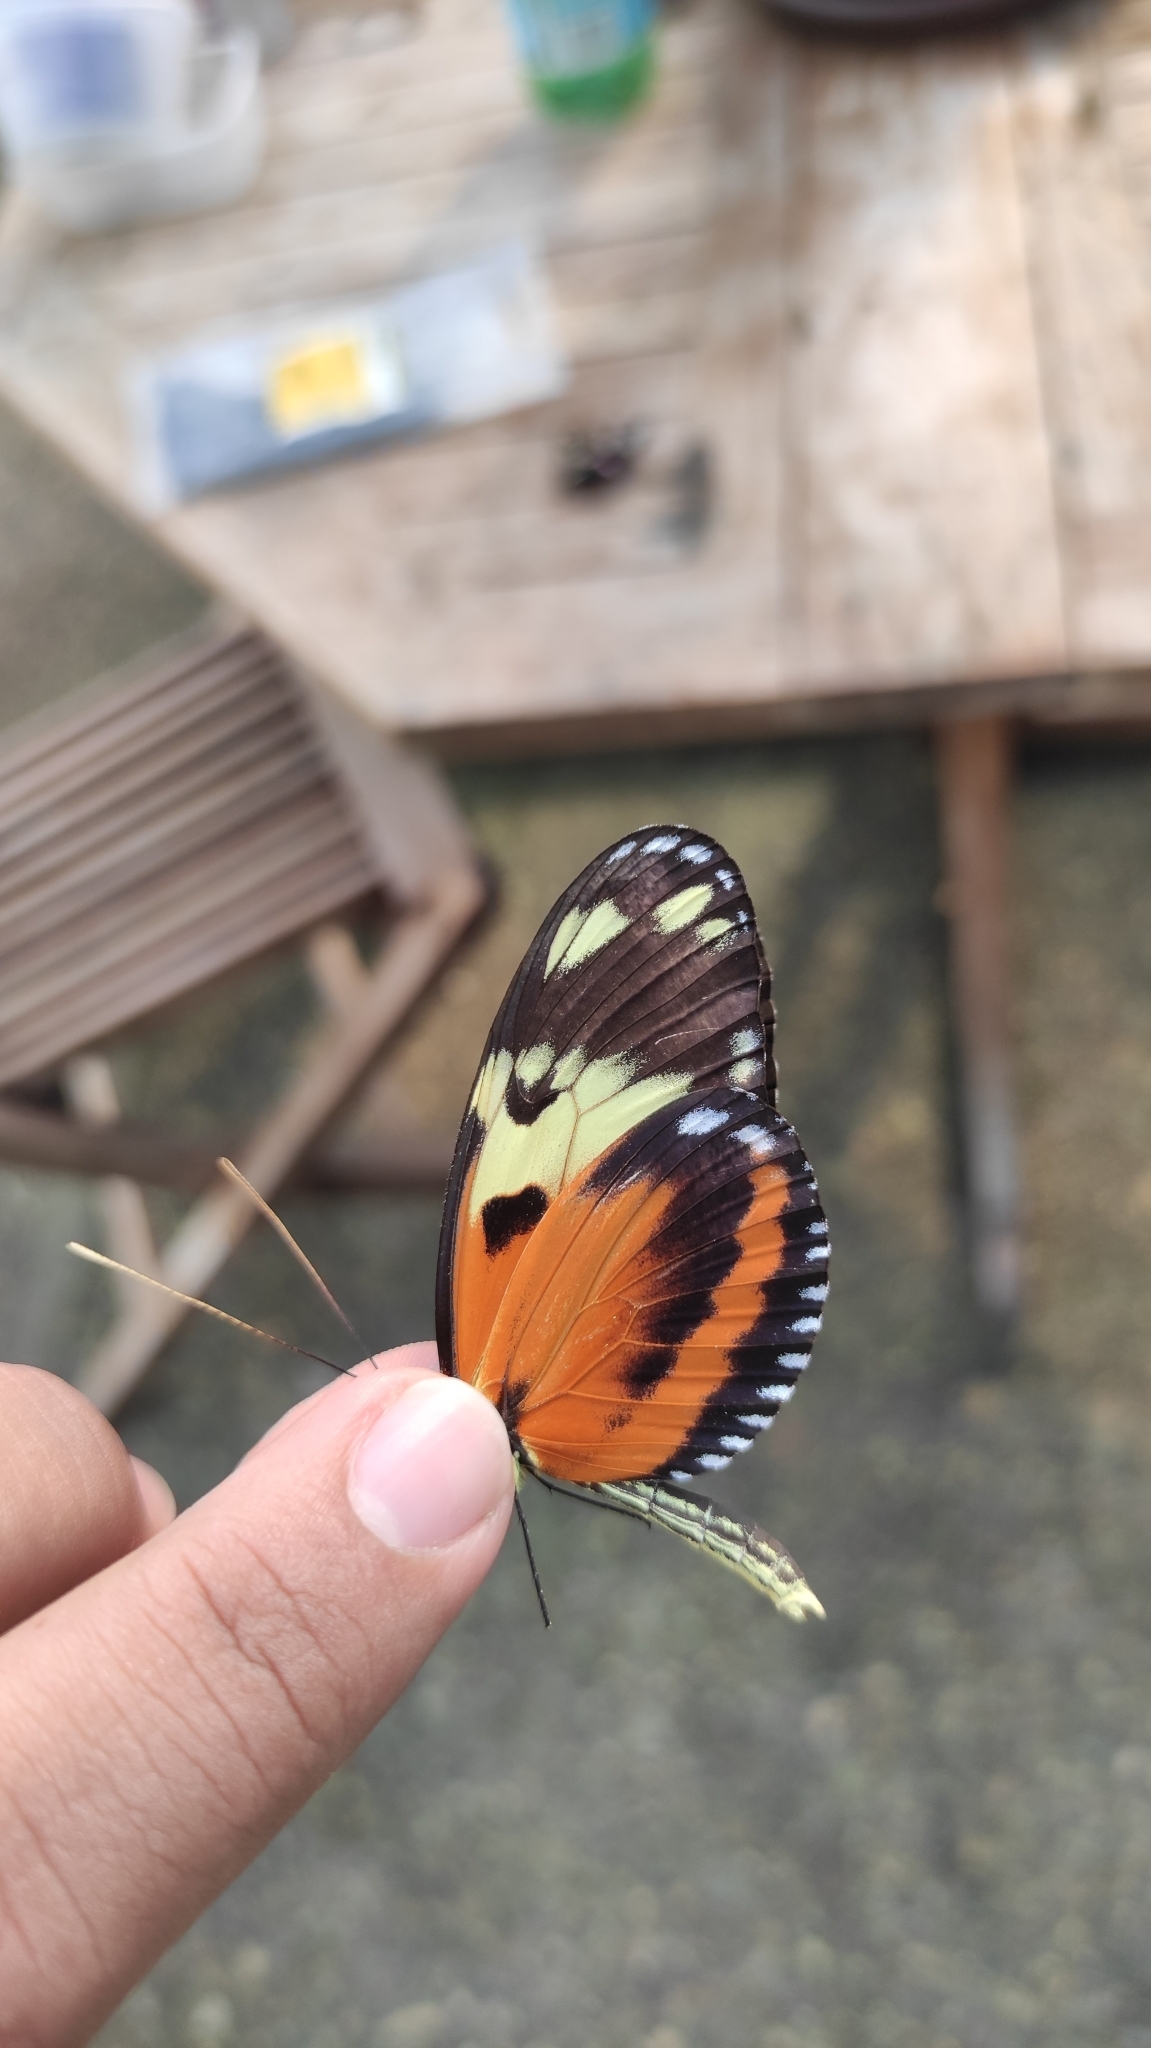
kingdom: Animalia
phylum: Arthropoda
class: Insecta
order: Lepidoptera
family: Nymphalidae
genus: Heliconius
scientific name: Heliconius ismenius
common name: Ismenius tiger
